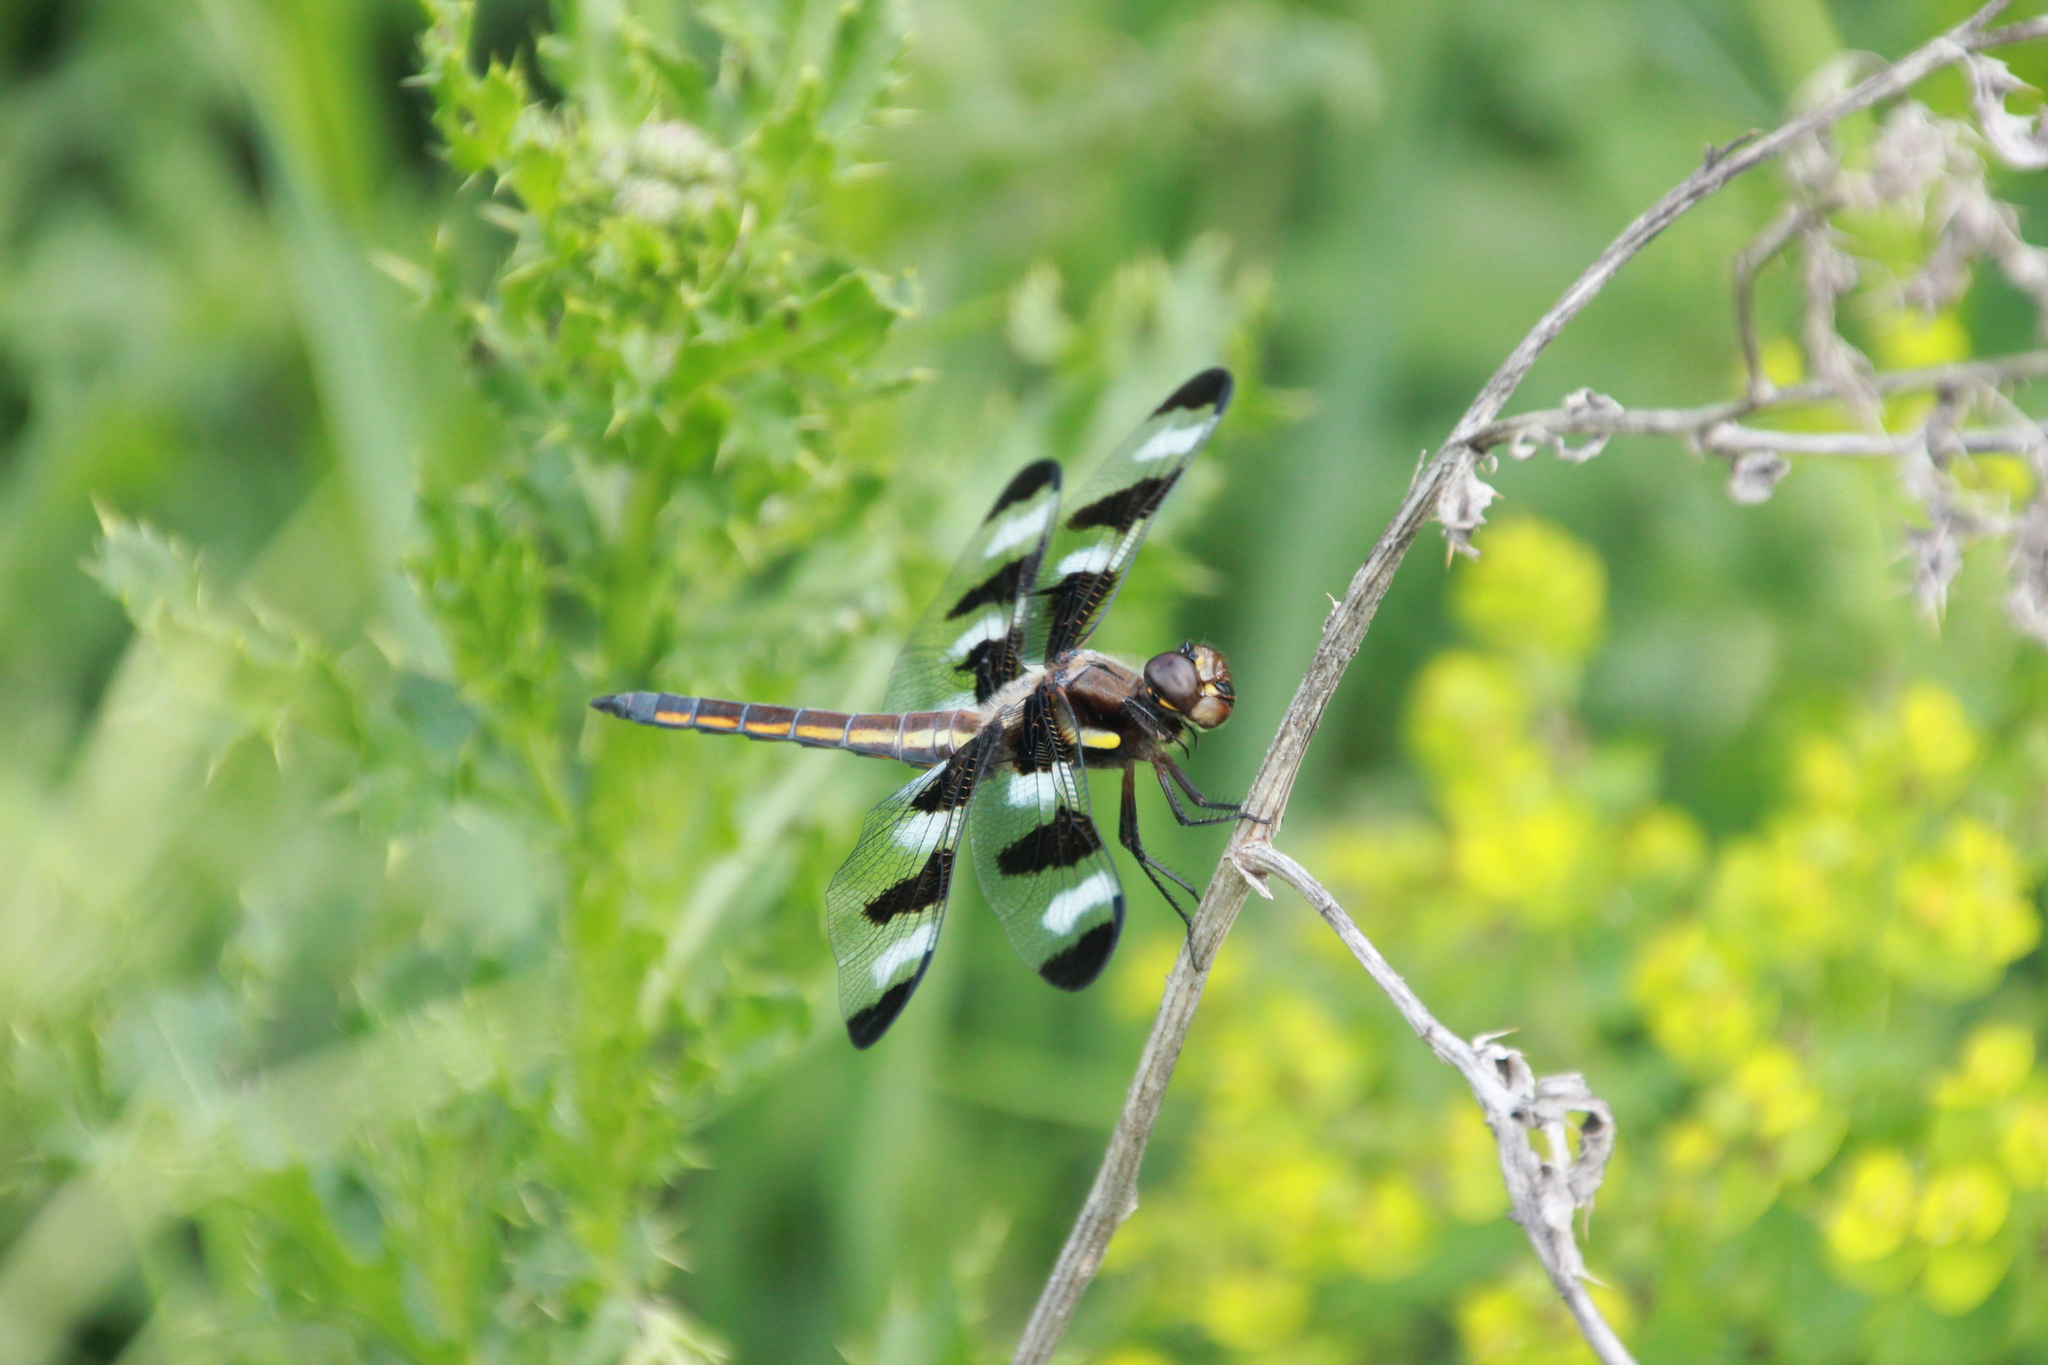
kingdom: Animalia
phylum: Arthropoda
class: Insecta
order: Odonata
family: Libellulidae
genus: Libellula
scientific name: Libellula pulchella
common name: Twelve-spotted skimmer
